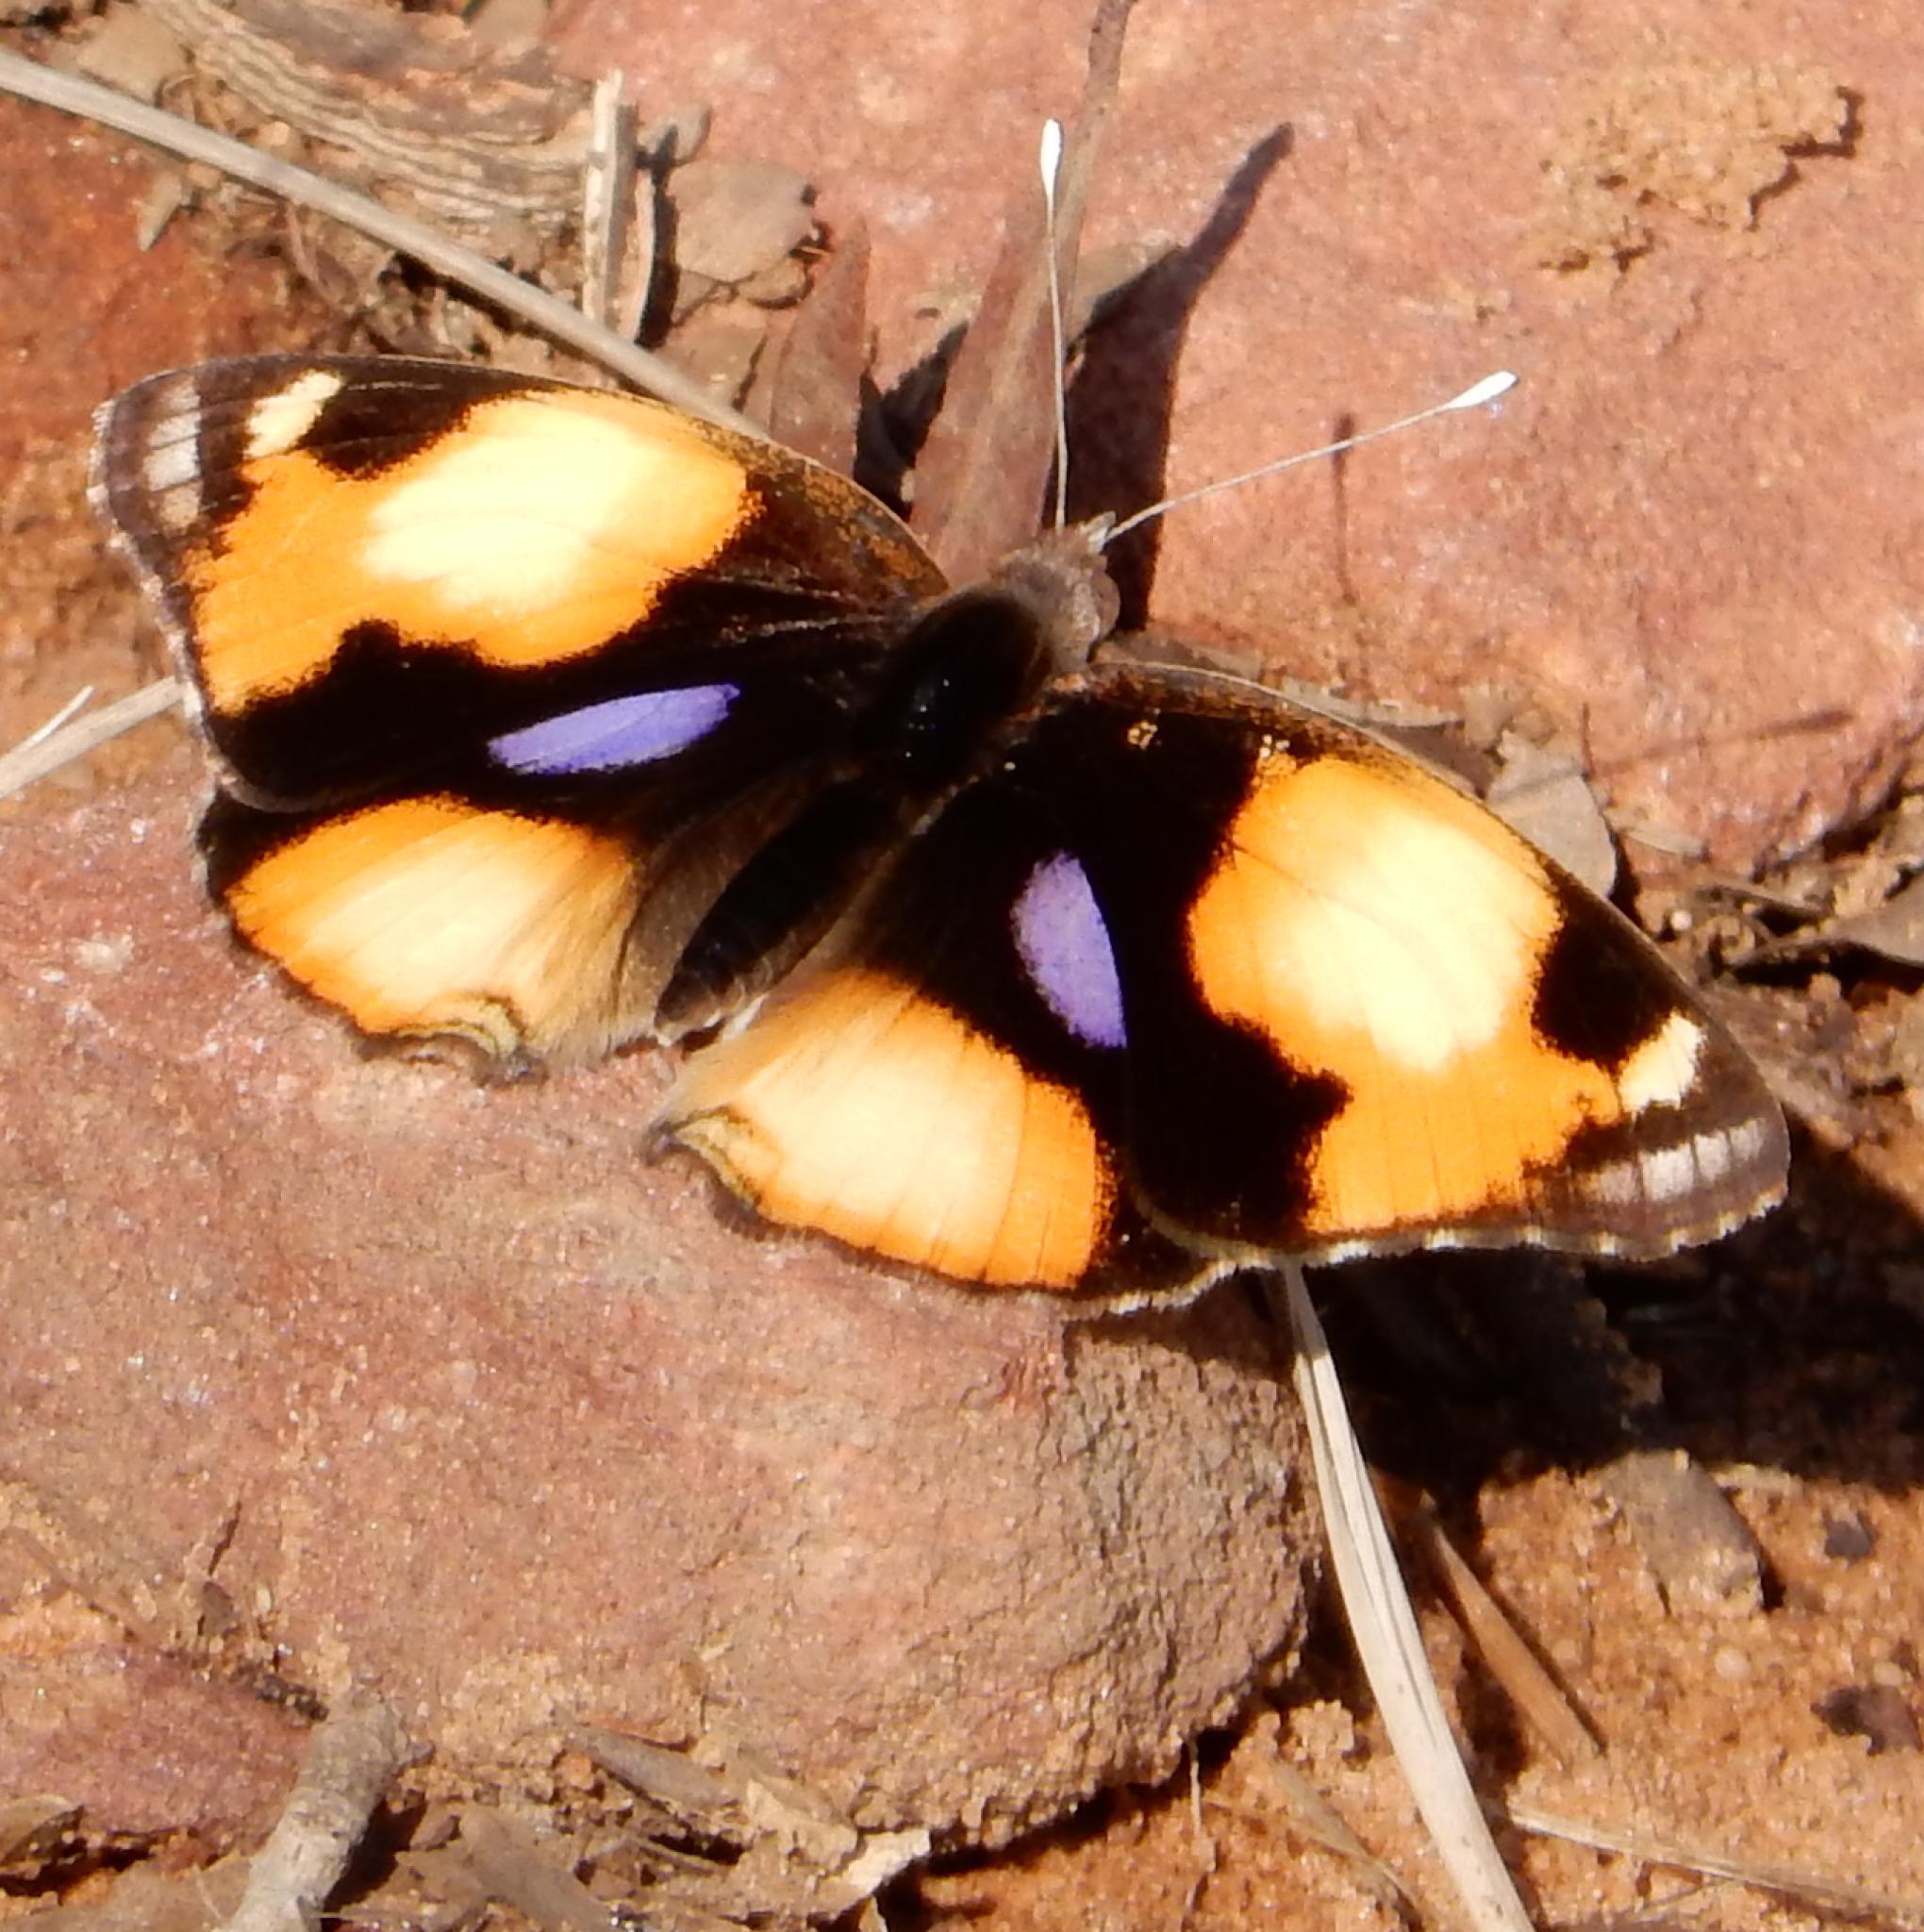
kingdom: Animalia
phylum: Arthropoda
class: Insecta
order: Lepidoptera
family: Nymphalidae
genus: Junonia
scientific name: Junonia hierta
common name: Yellow pansy
